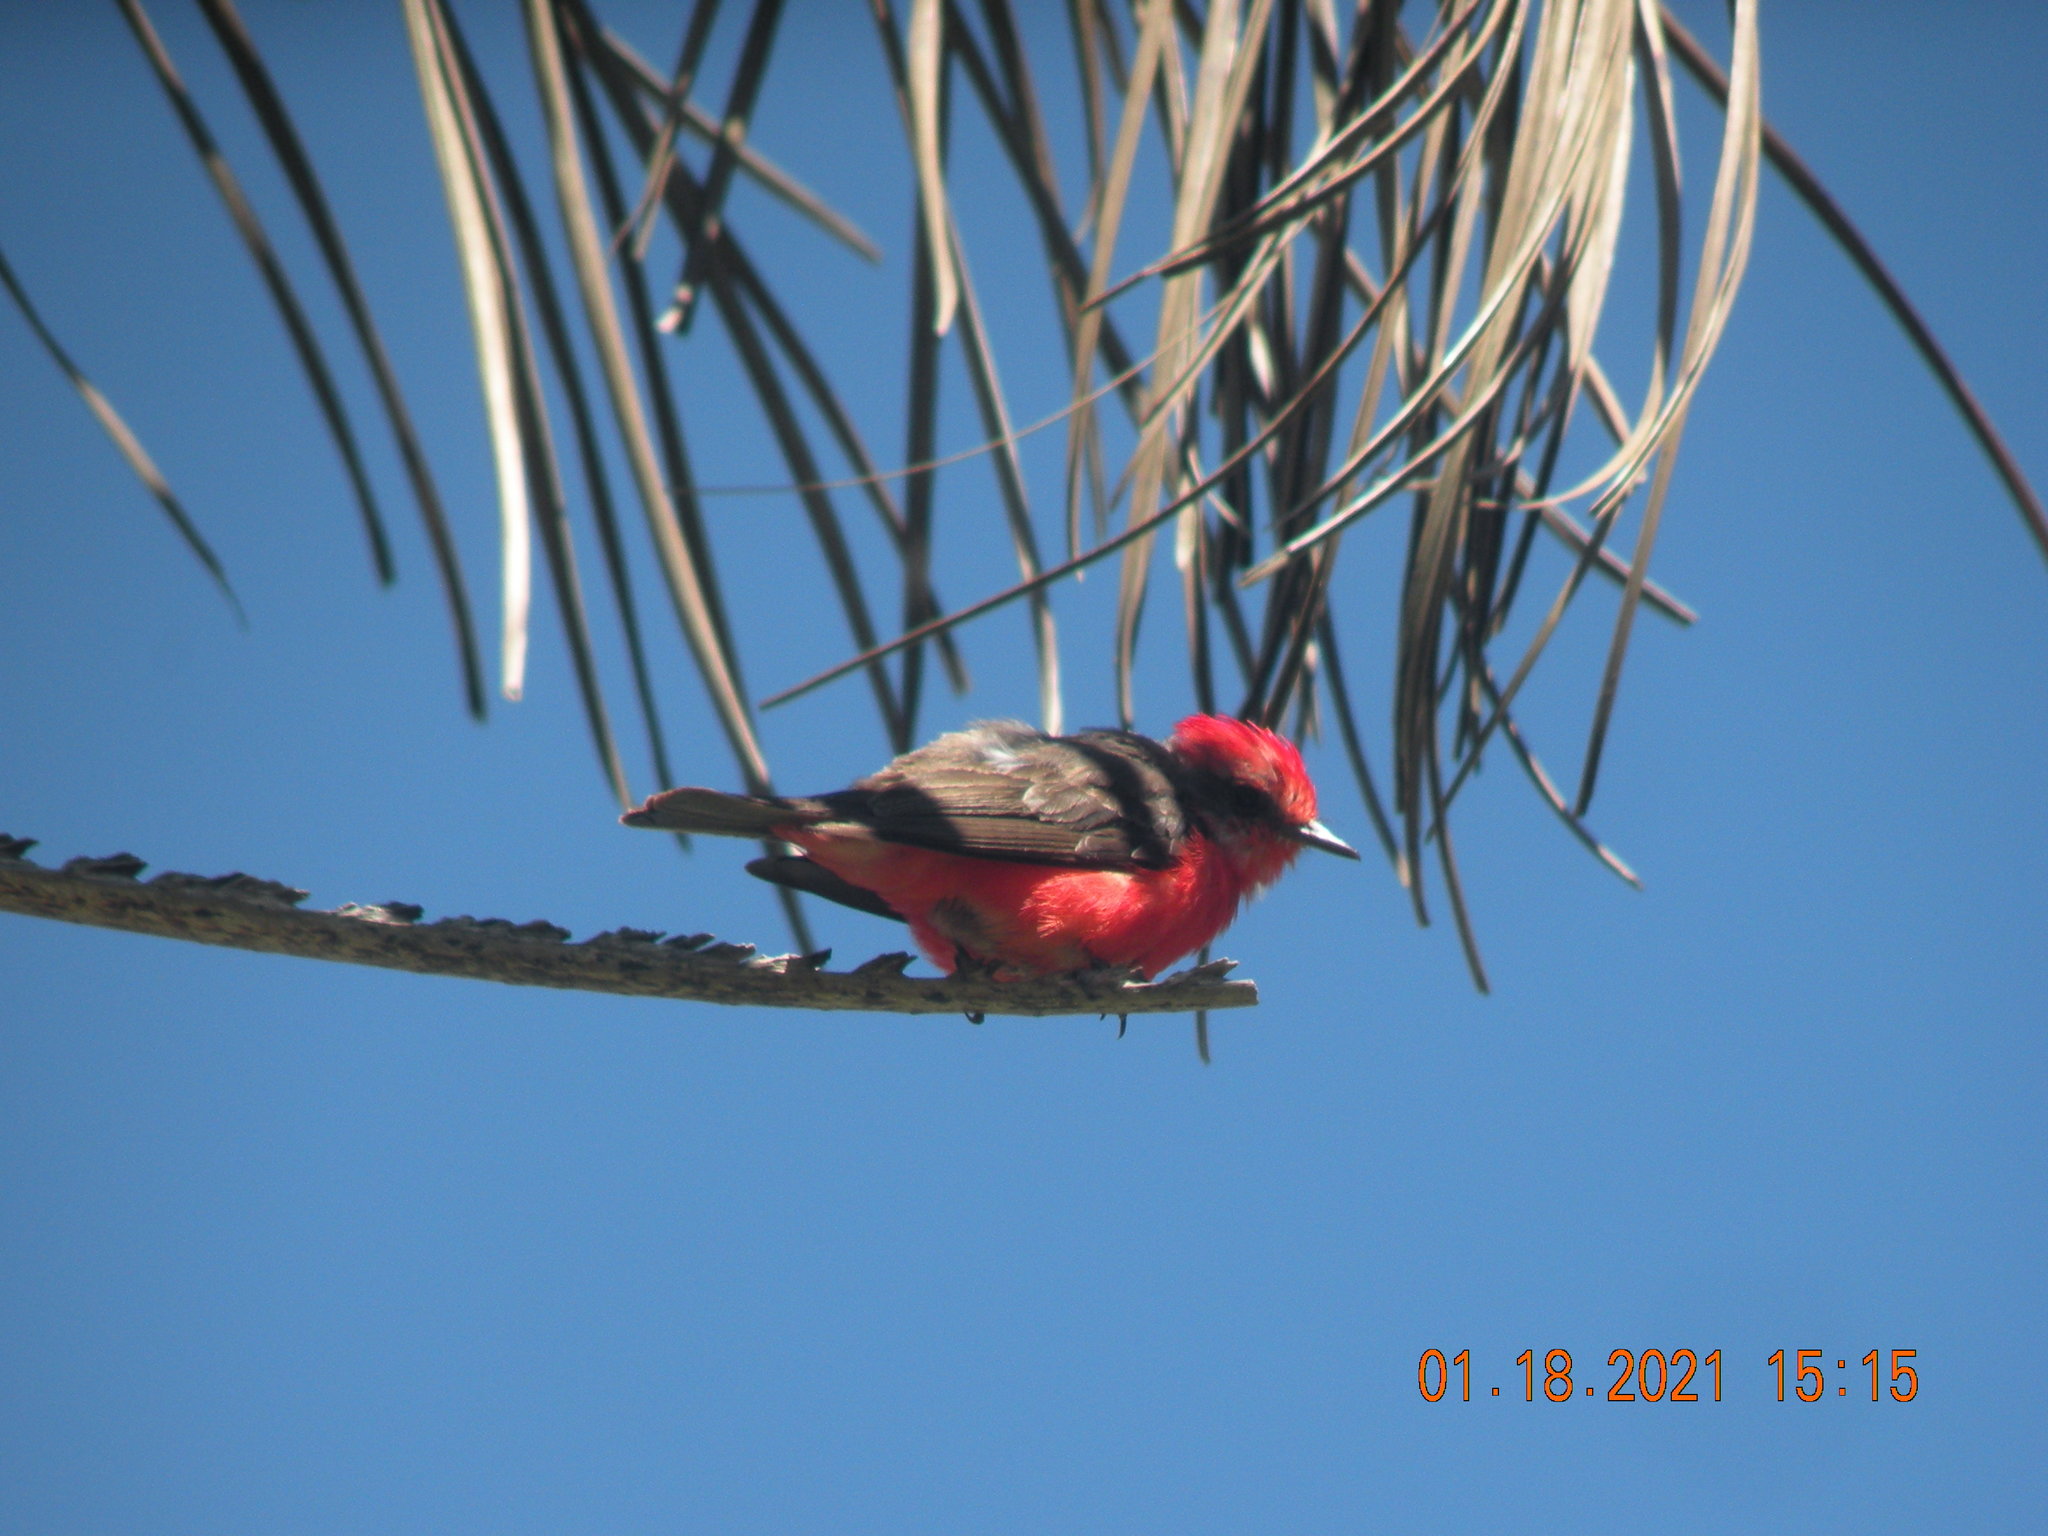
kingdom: Animalia
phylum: Chordata
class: Aves
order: Passeriformes
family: Tyrannidae
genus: Pyrocephalus
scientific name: Pyrocephalus rubinus
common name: Vermilion flycatcher
